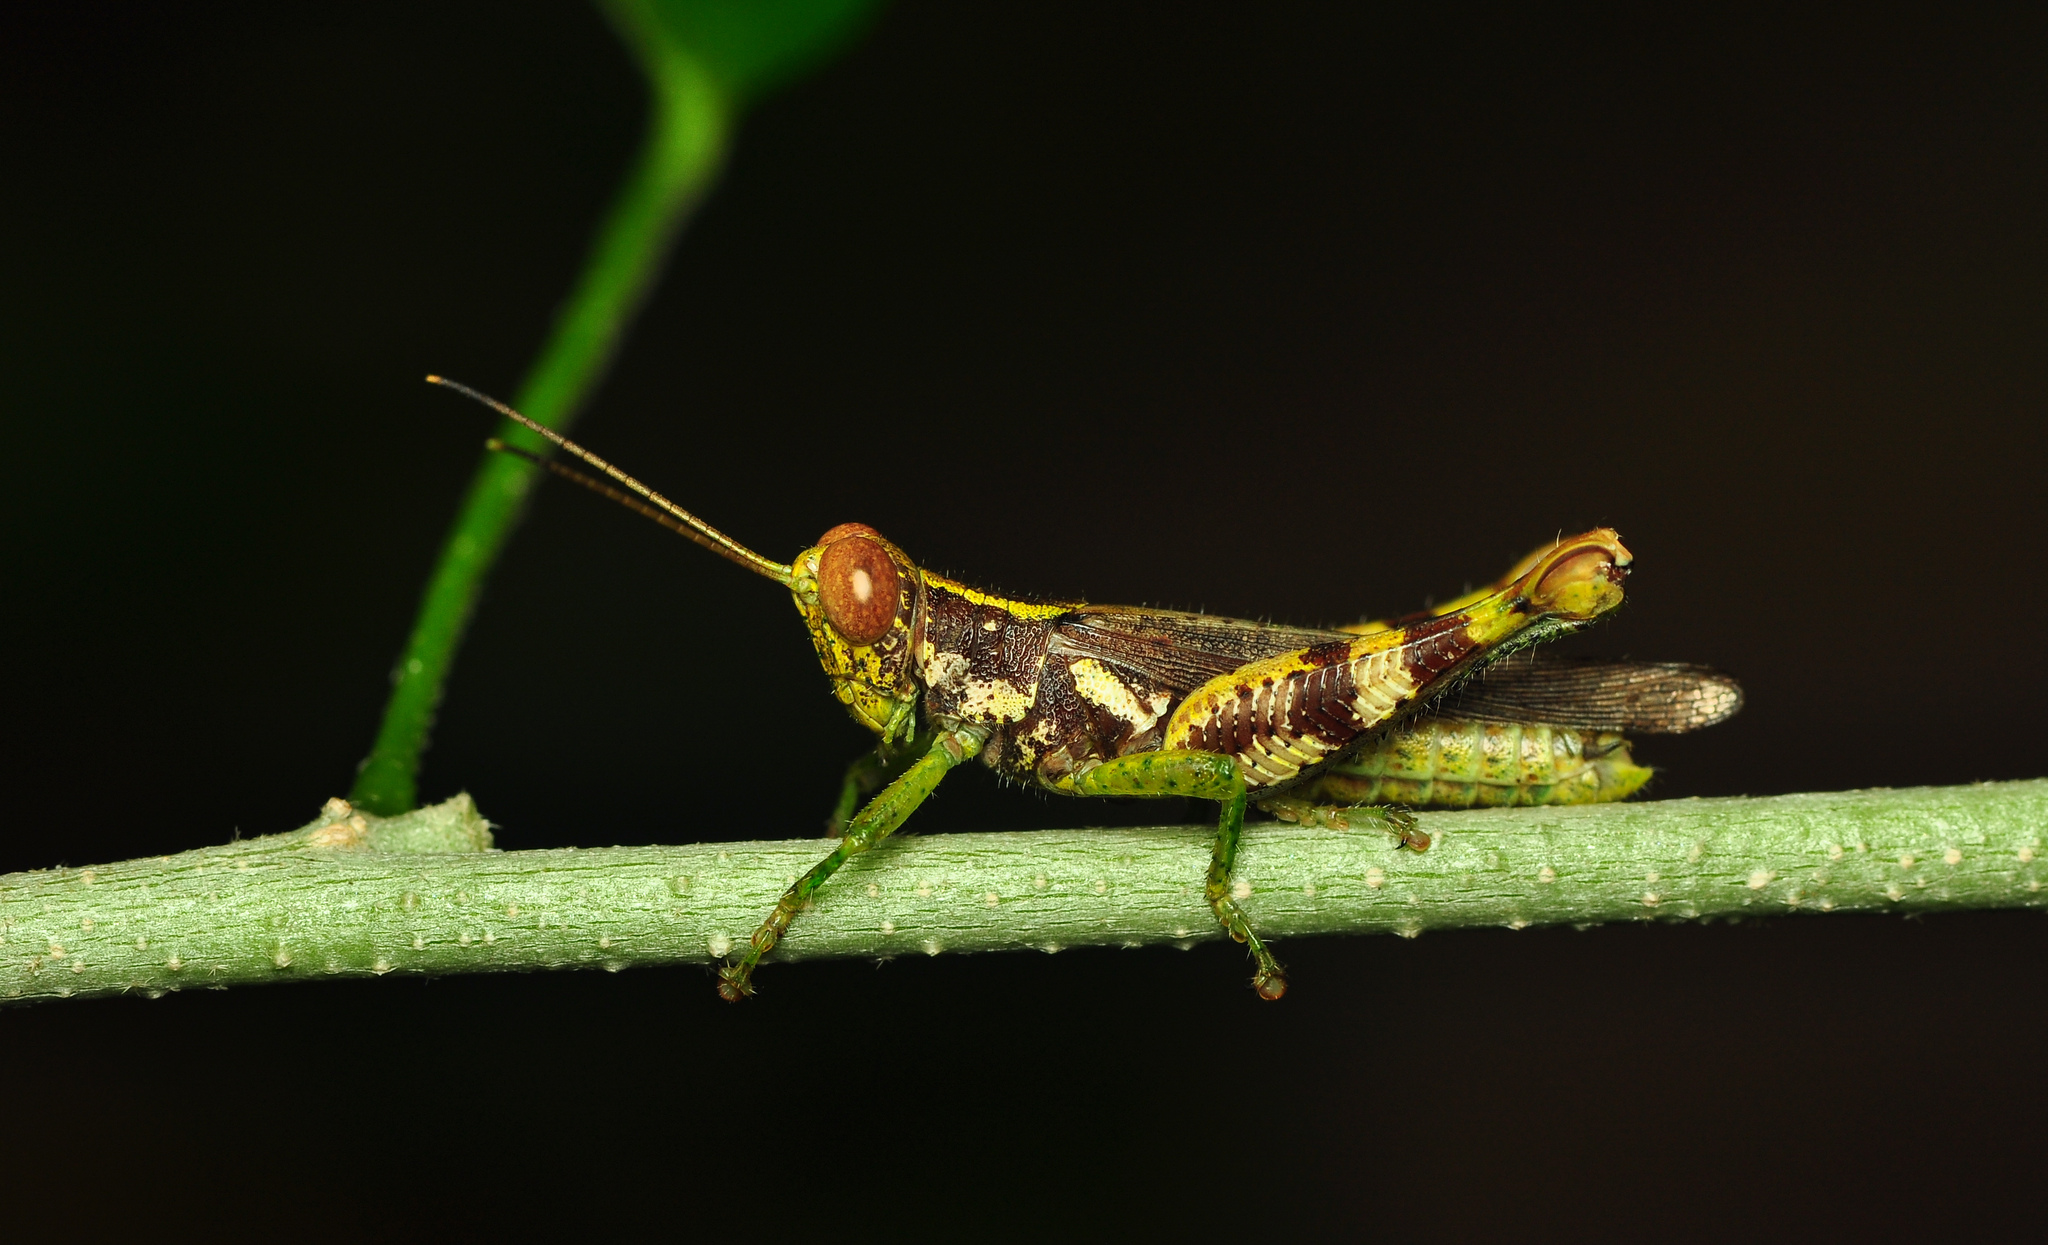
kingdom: Animalia
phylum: Arthropoda
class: Insecta
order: Orthoptera
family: Acrididae
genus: Pirithoicus
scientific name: Pirithoicus ophthalmicus
